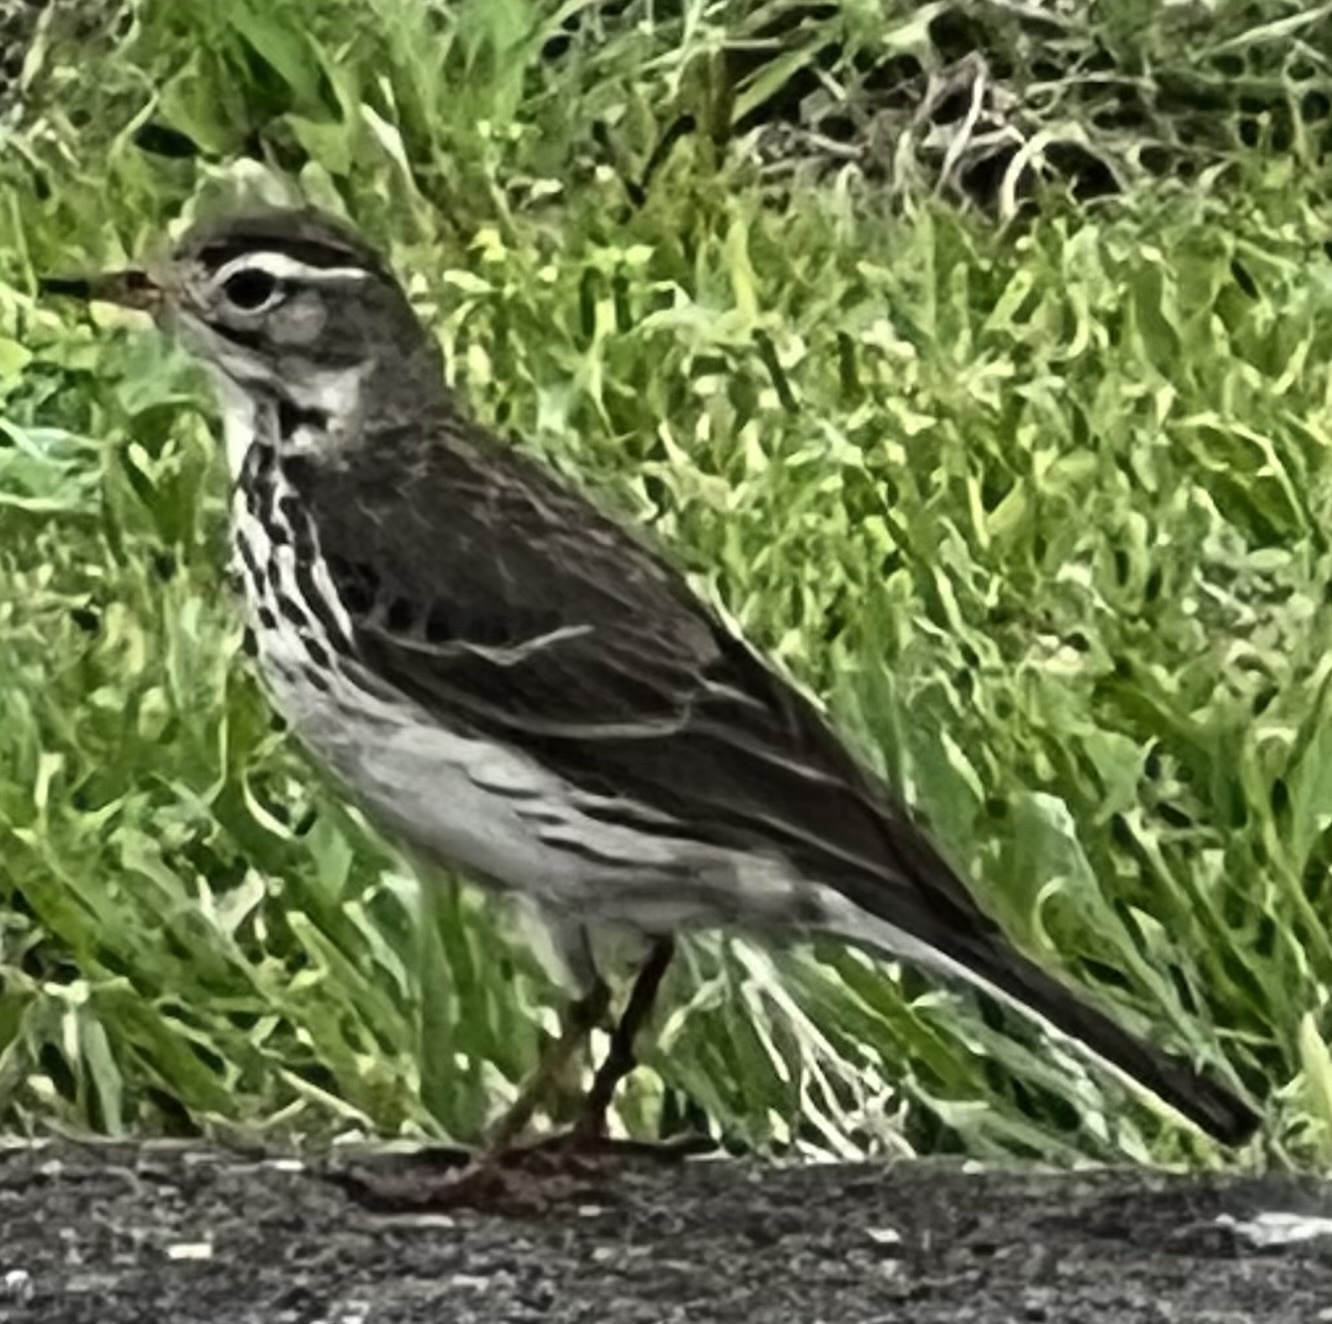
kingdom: Animalia
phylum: Chordata
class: Aves
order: Passeriformes
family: Motacillidae
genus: Anthus
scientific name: Anthus rubescens
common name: Buff-bellied pipit
